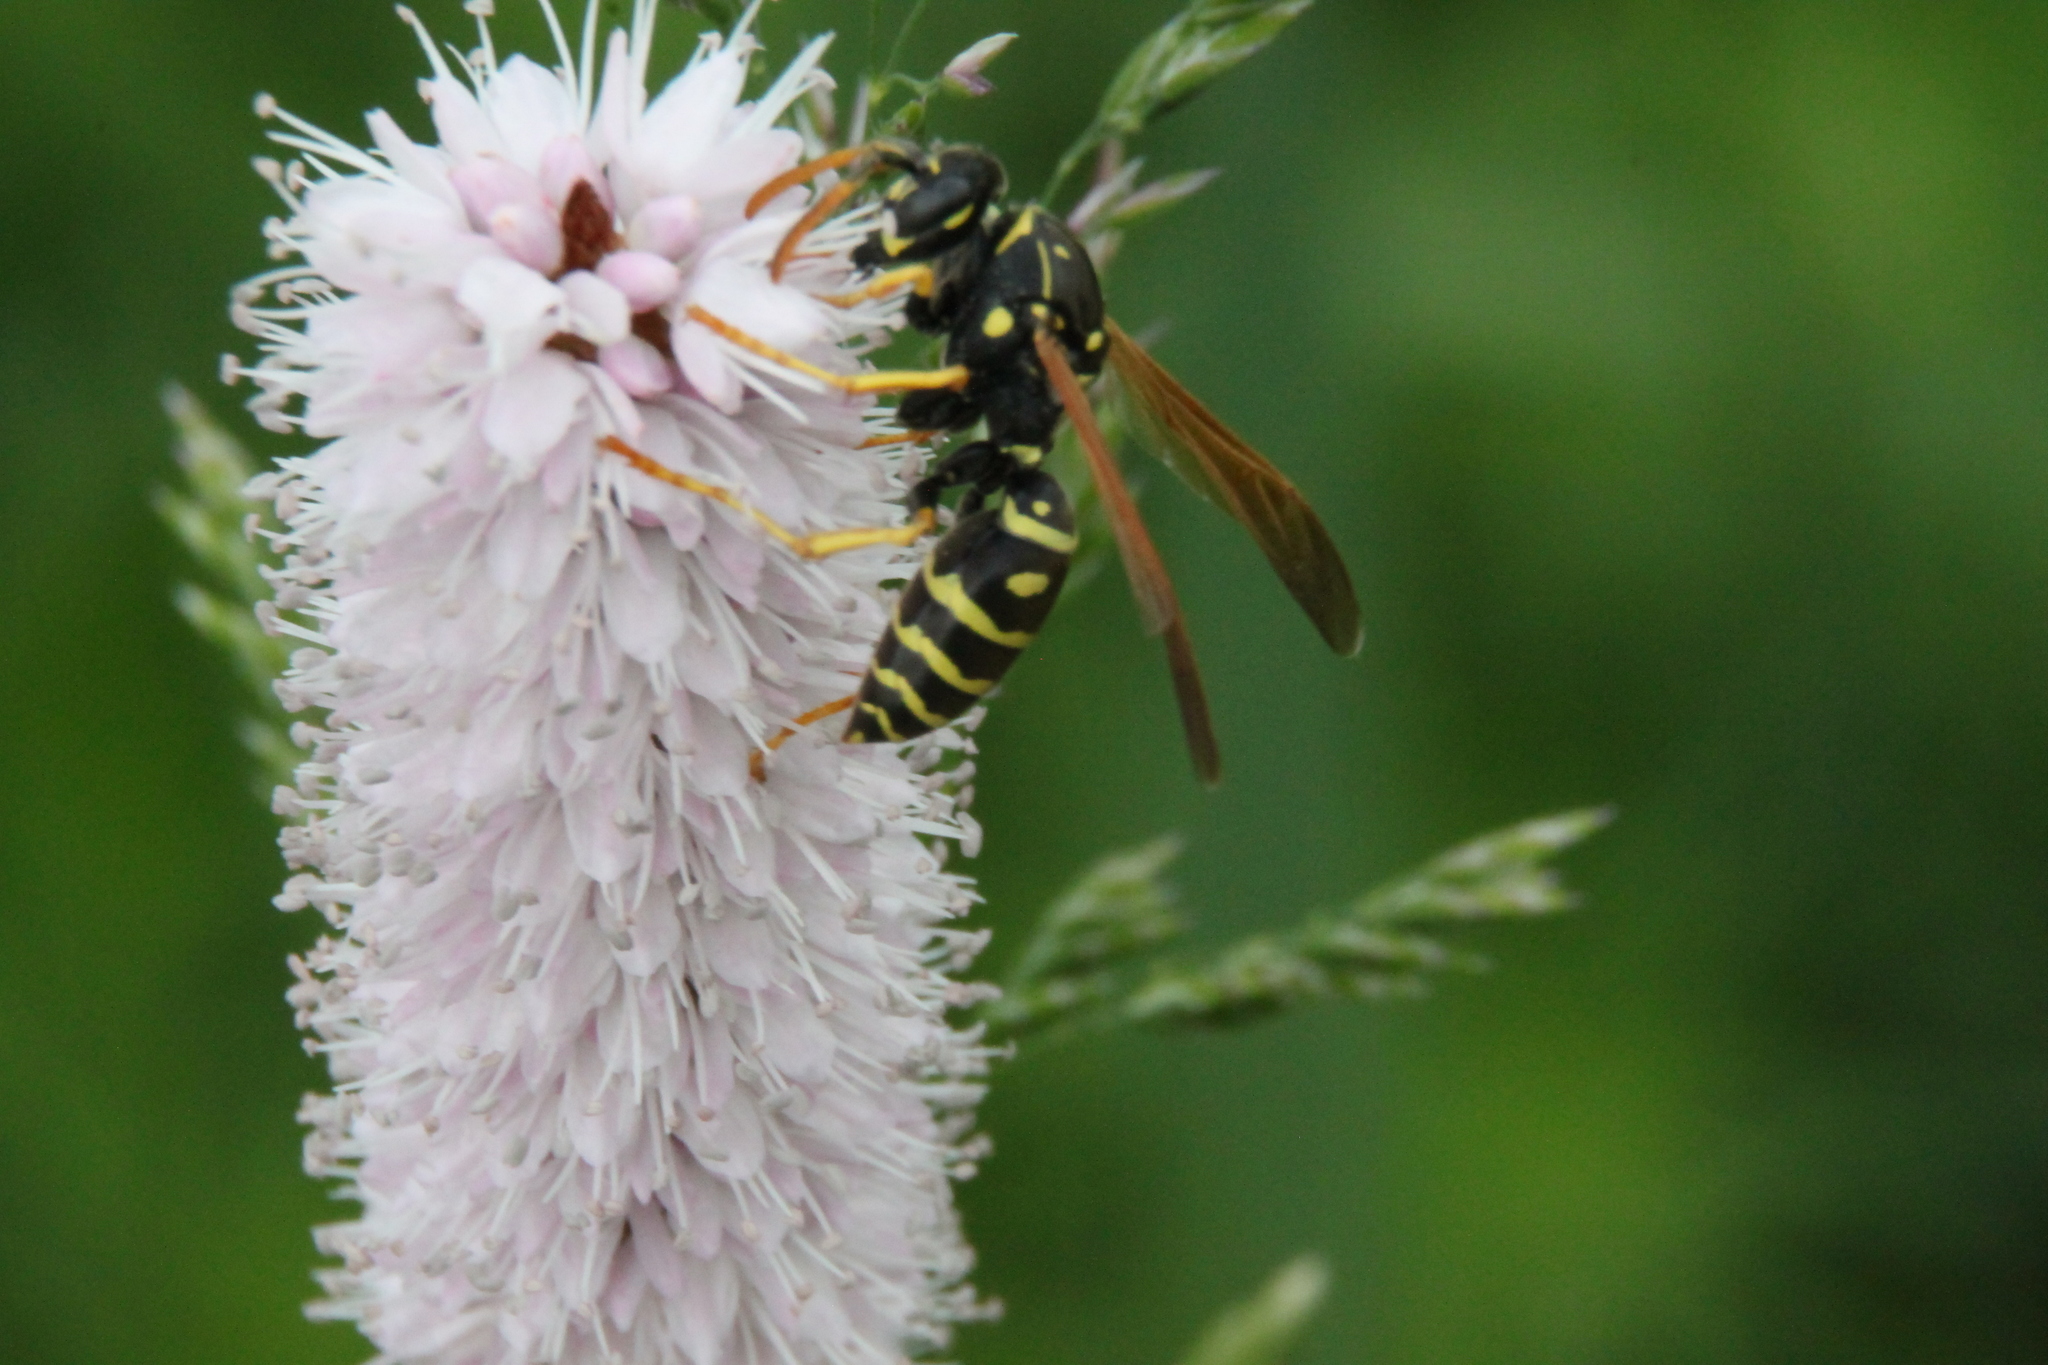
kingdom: Animalia
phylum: Arthropoda
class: Insecta
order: Hymenoptera
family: Eumenidae
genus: Polistes
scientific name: Polistes nimpha
